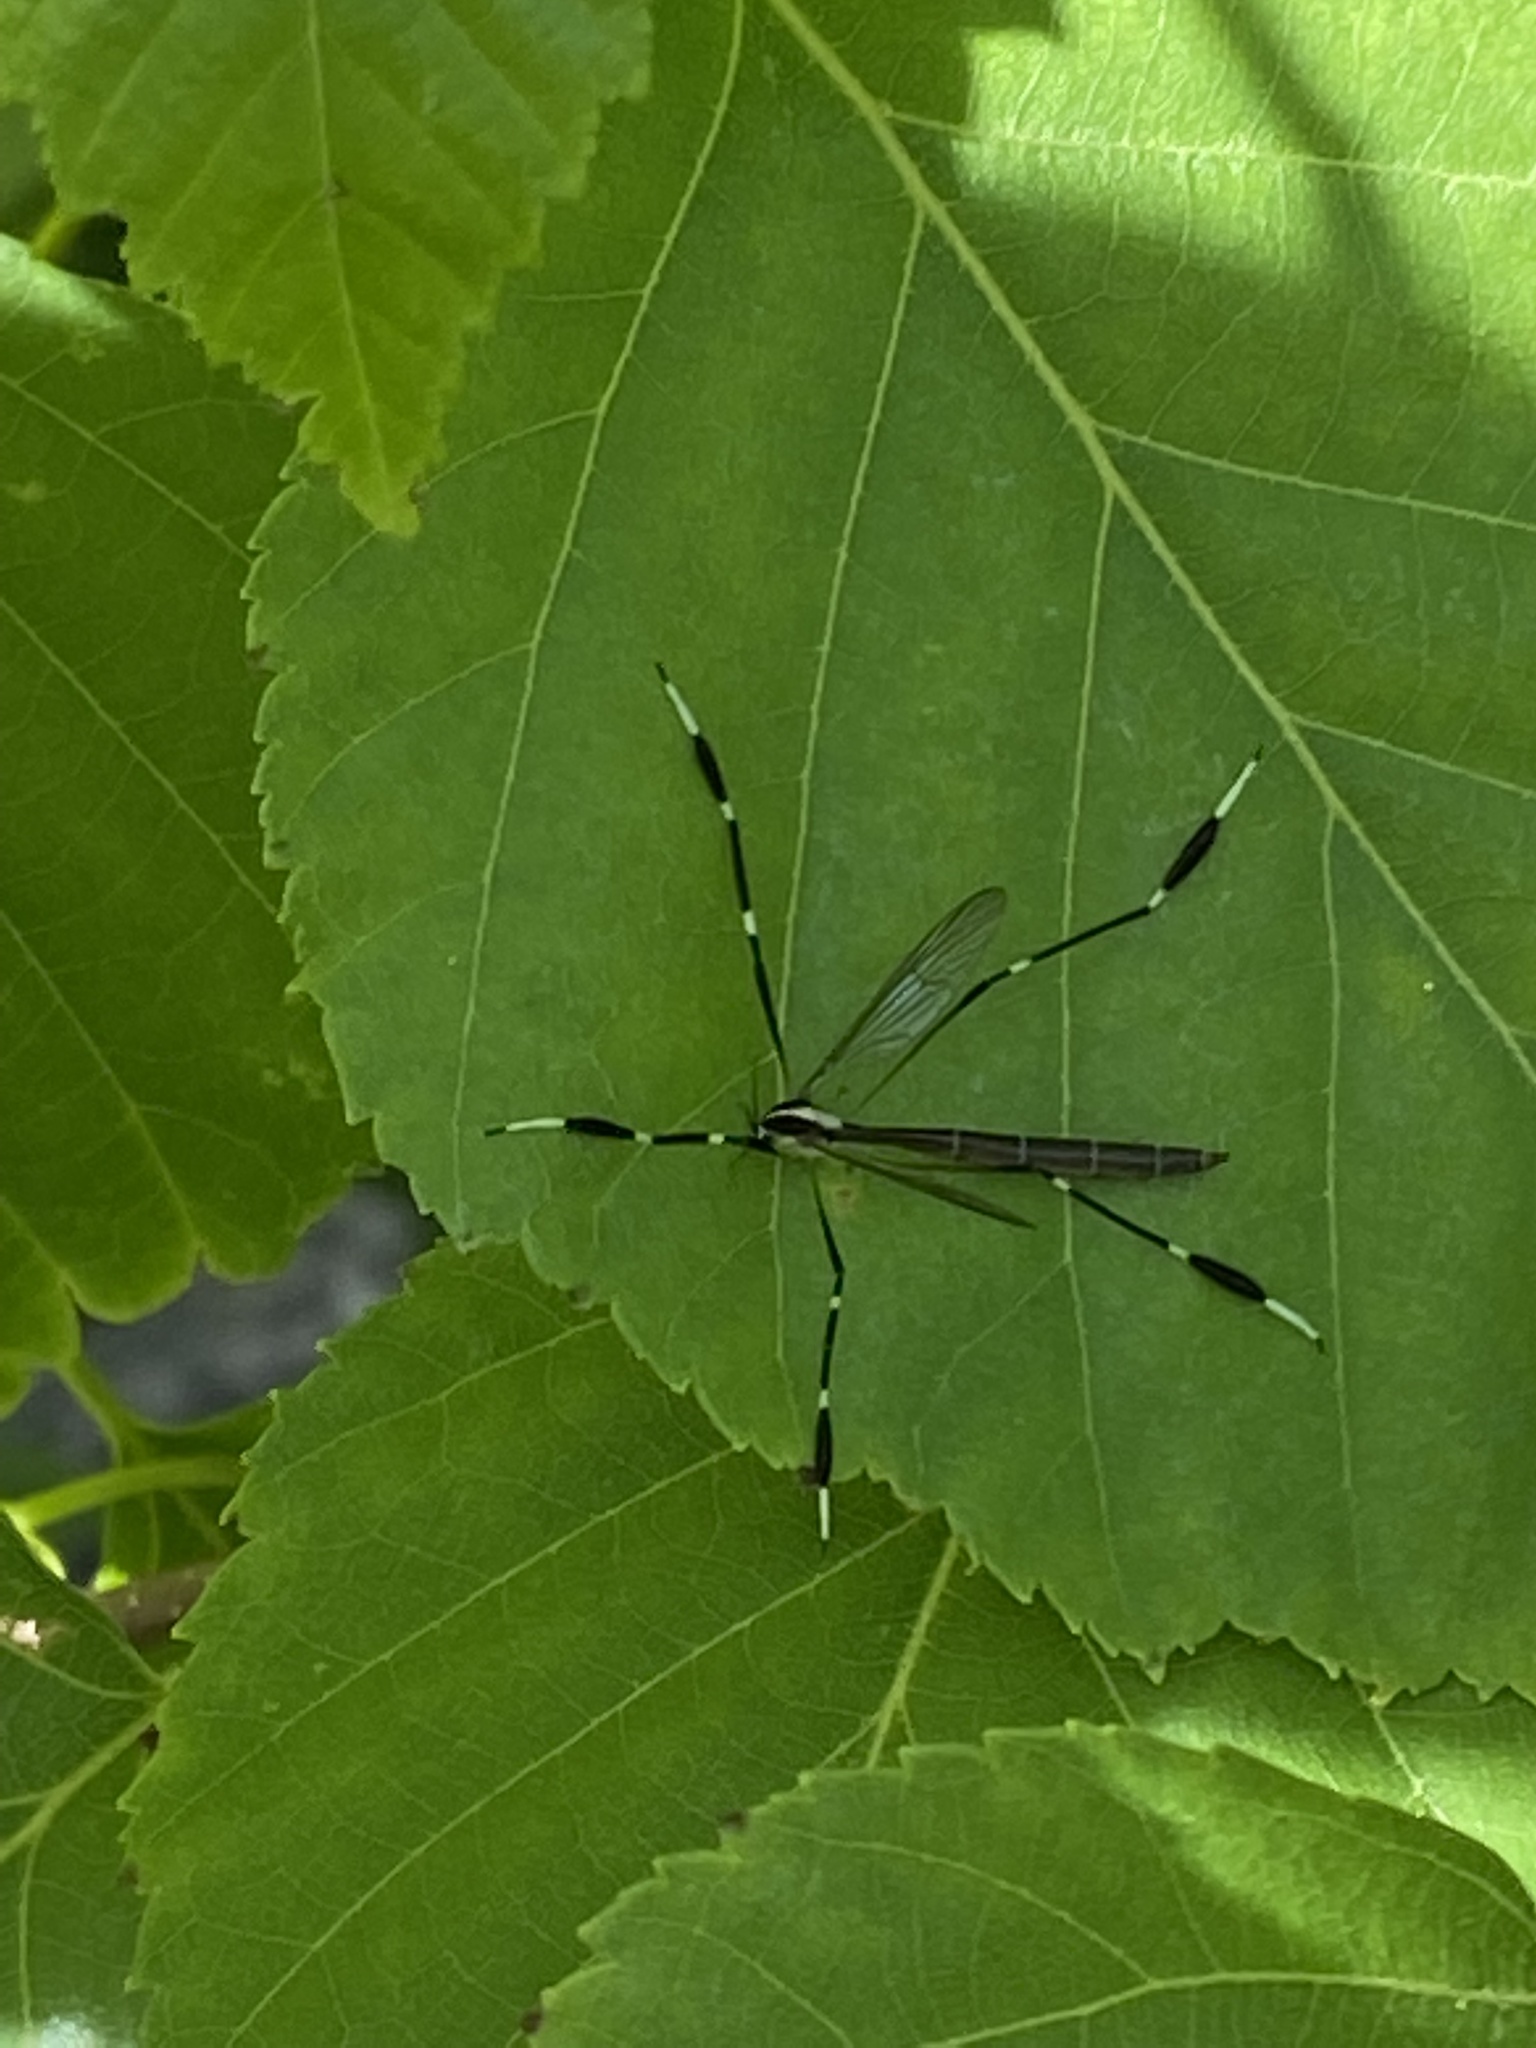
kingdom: Animalia
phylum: Arthropoda
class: Insecta
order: Diptera
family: Ptychopteridae
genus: Bittacomorpha
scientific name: Bittacomorpha clavipes
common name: Eastern phantom crane fly
